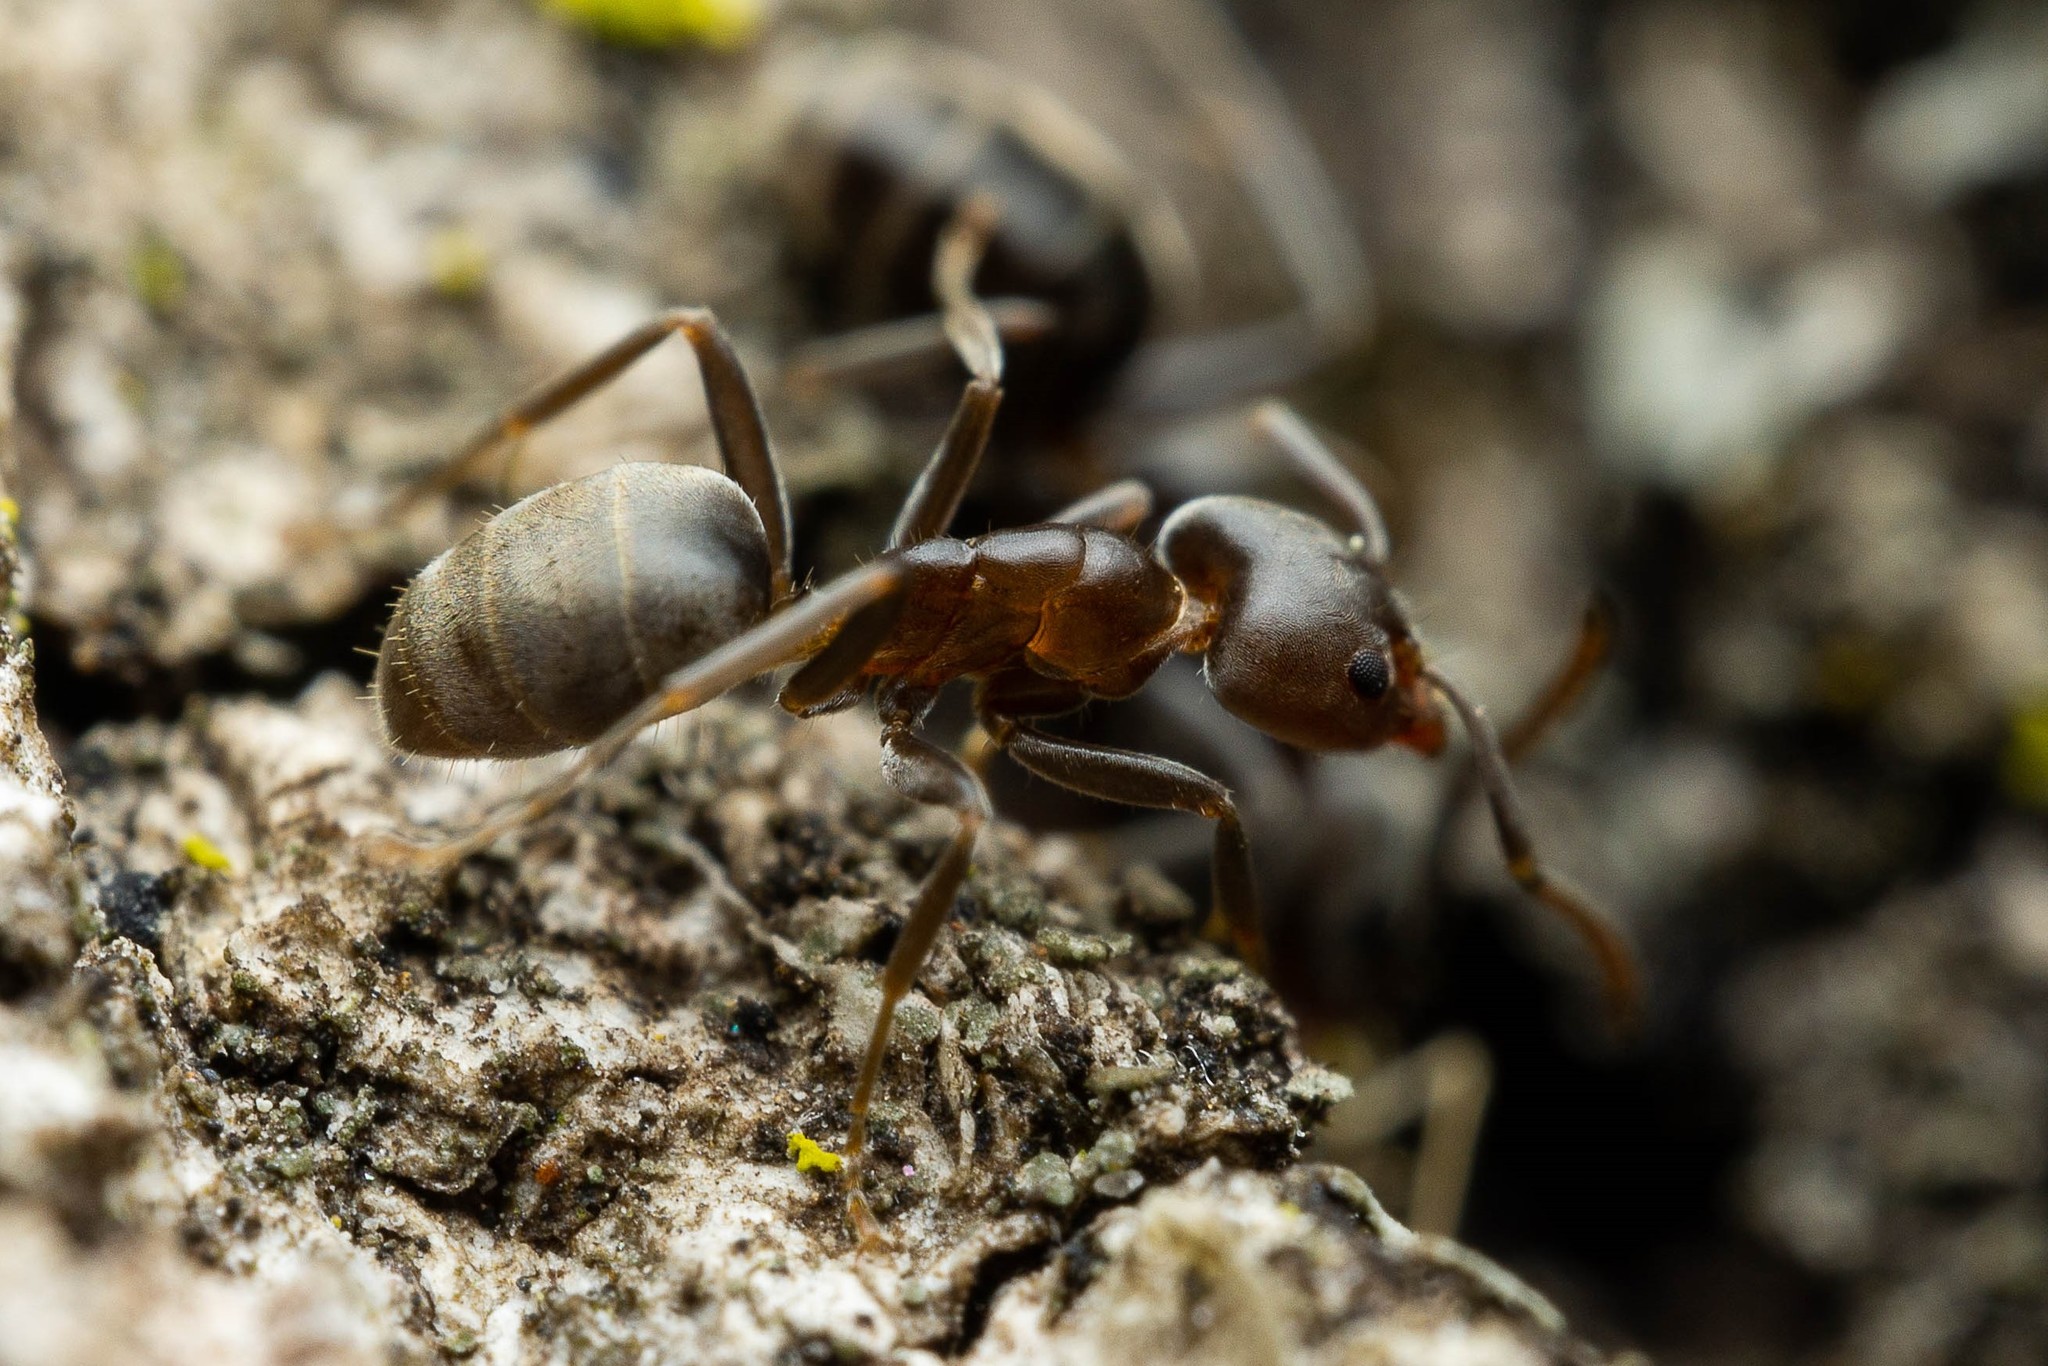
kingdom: Animalia
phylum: Arthropoda
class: Insecta
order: Hymenoptera
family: Formicidae
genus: Liometopum
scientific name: Liometopum luctuosum
